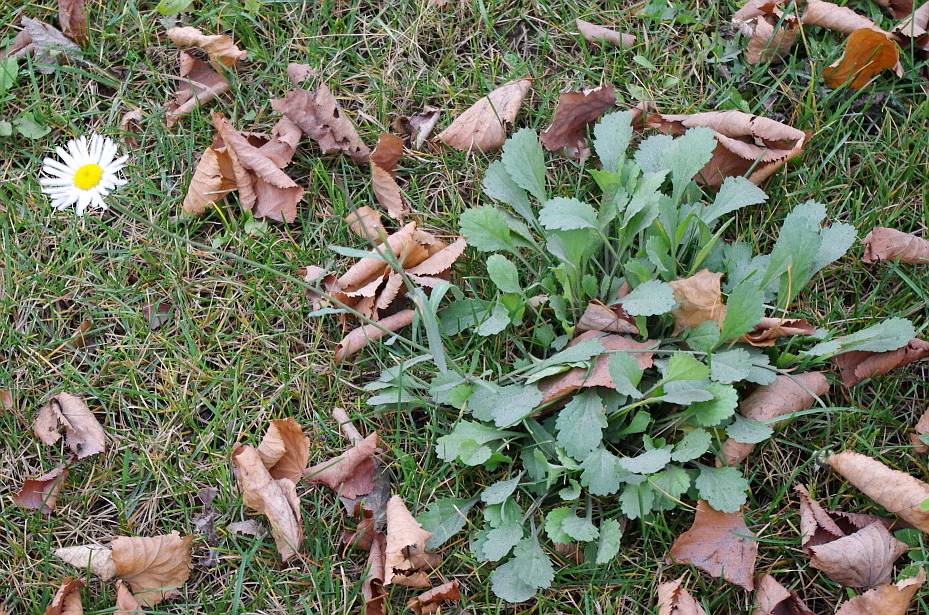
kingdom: Plantae
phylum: Tracheophyta
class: Magnoliopsida
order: Asterales
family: Asteraceae
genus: Leucanthemum
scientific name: Leucanthemum vulgare
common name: Oxeye daisy
